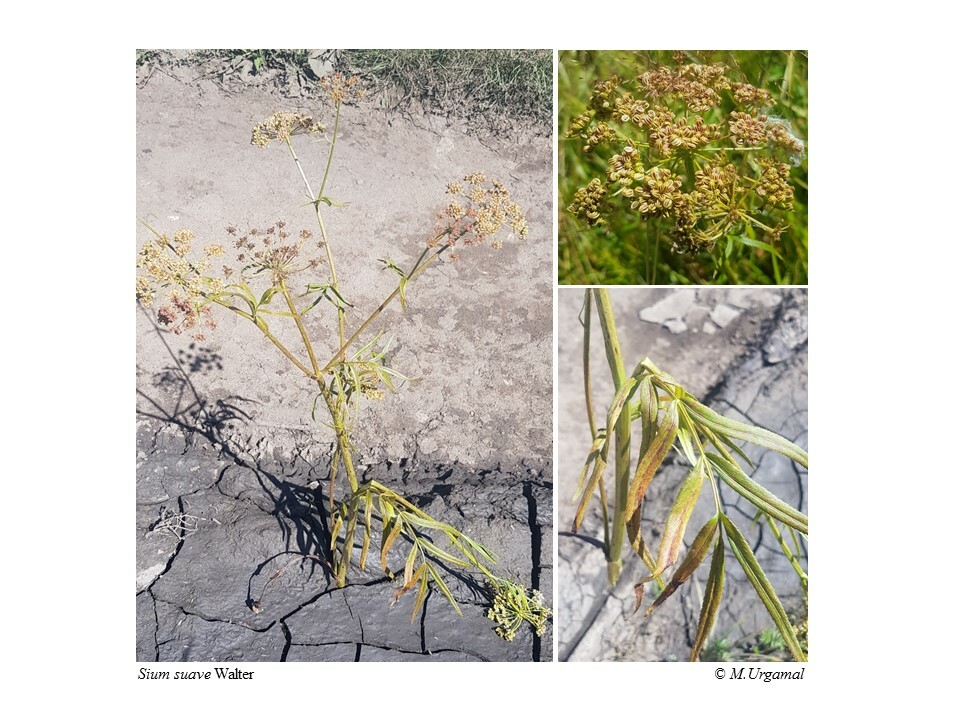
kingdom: Plantae
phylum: Tracheophyta
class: Magnoliopsida
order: Apiales
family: Apiaceae
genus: Sium
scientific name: Sium suave
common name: Hemlock water-parsnip
